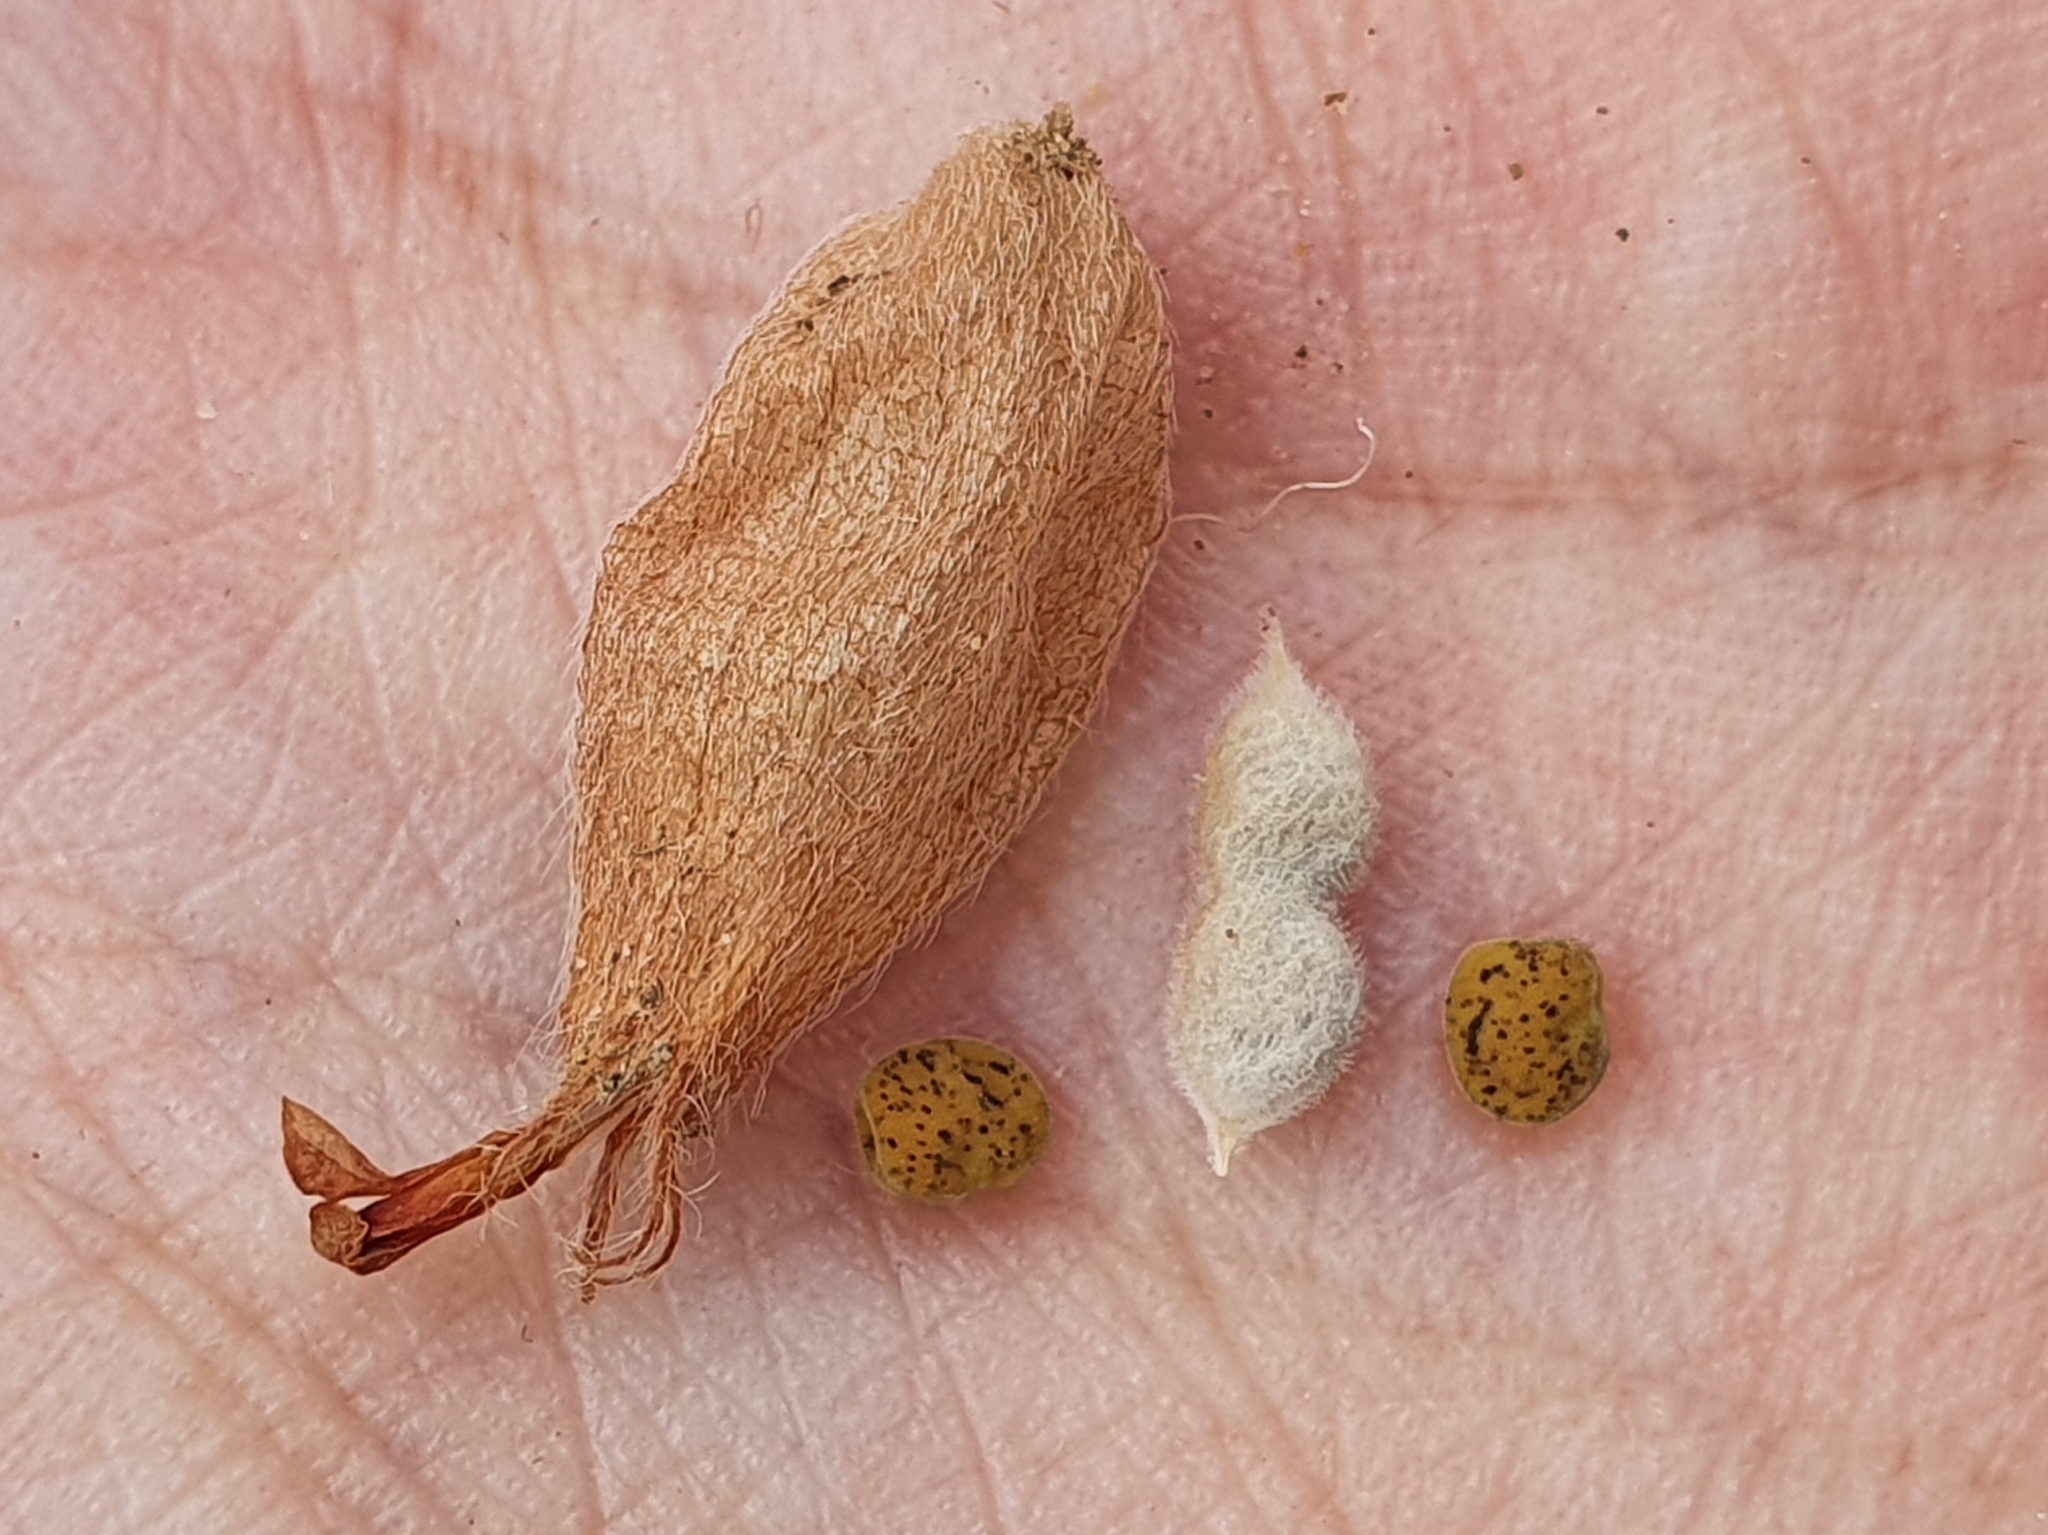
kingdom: Plantae
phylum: Tracheophyta
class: Magnoliopsida
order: Fabales
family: Fabaceae
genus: Tripodion
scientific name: Tripodion tetraphyllum
